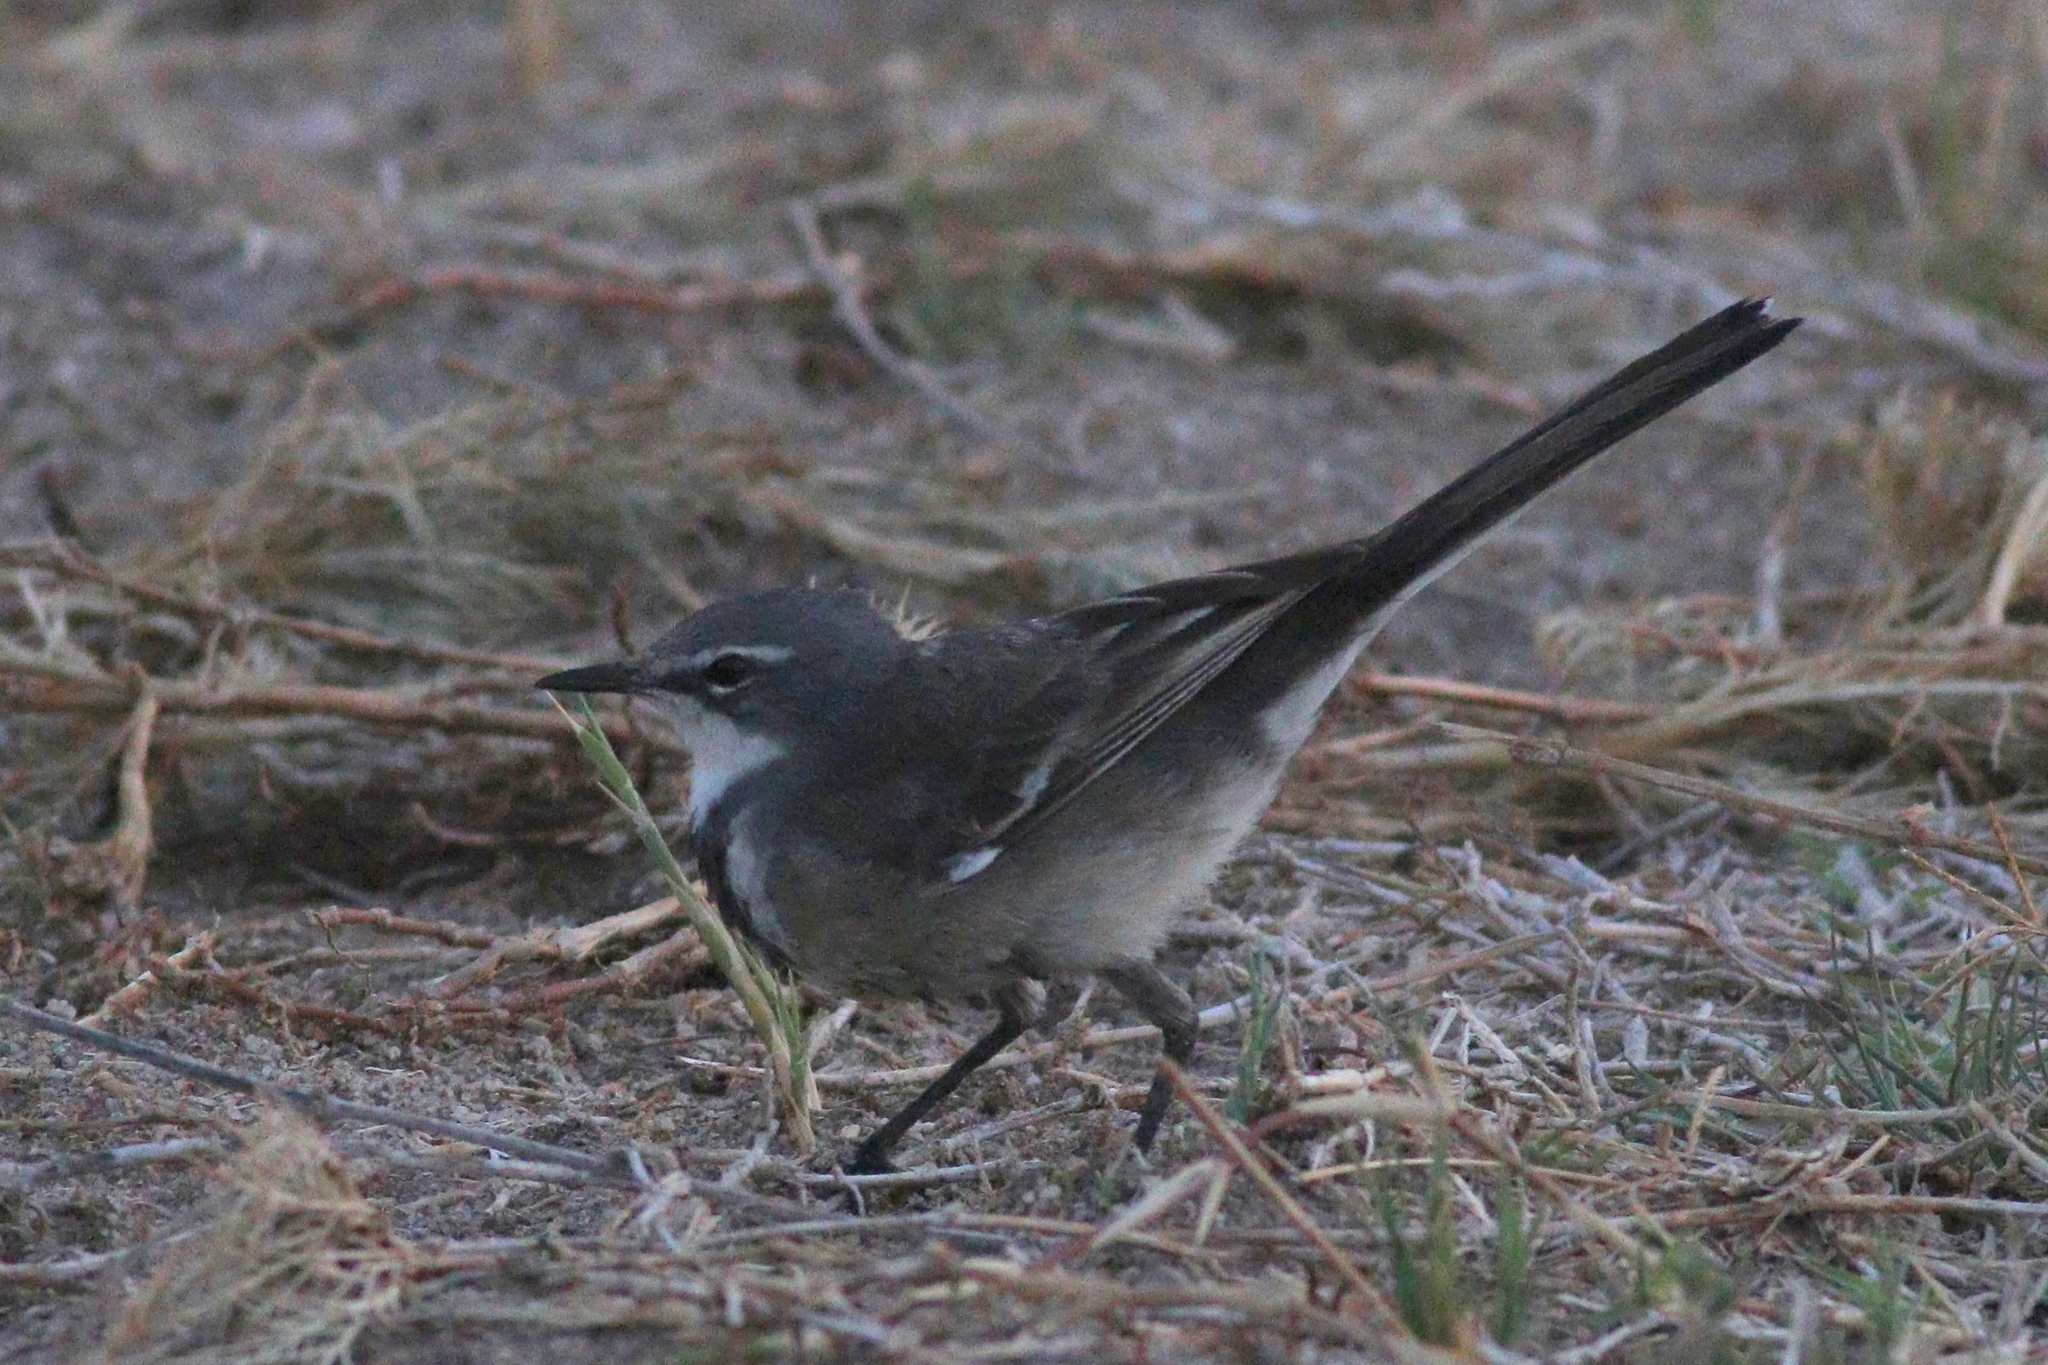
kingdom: Animalia
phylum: Chordata
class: Aves
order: Passeriformes
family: Motacillidae
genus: Motacilla
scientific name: Motacilla capensis
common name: Cape wagtail
